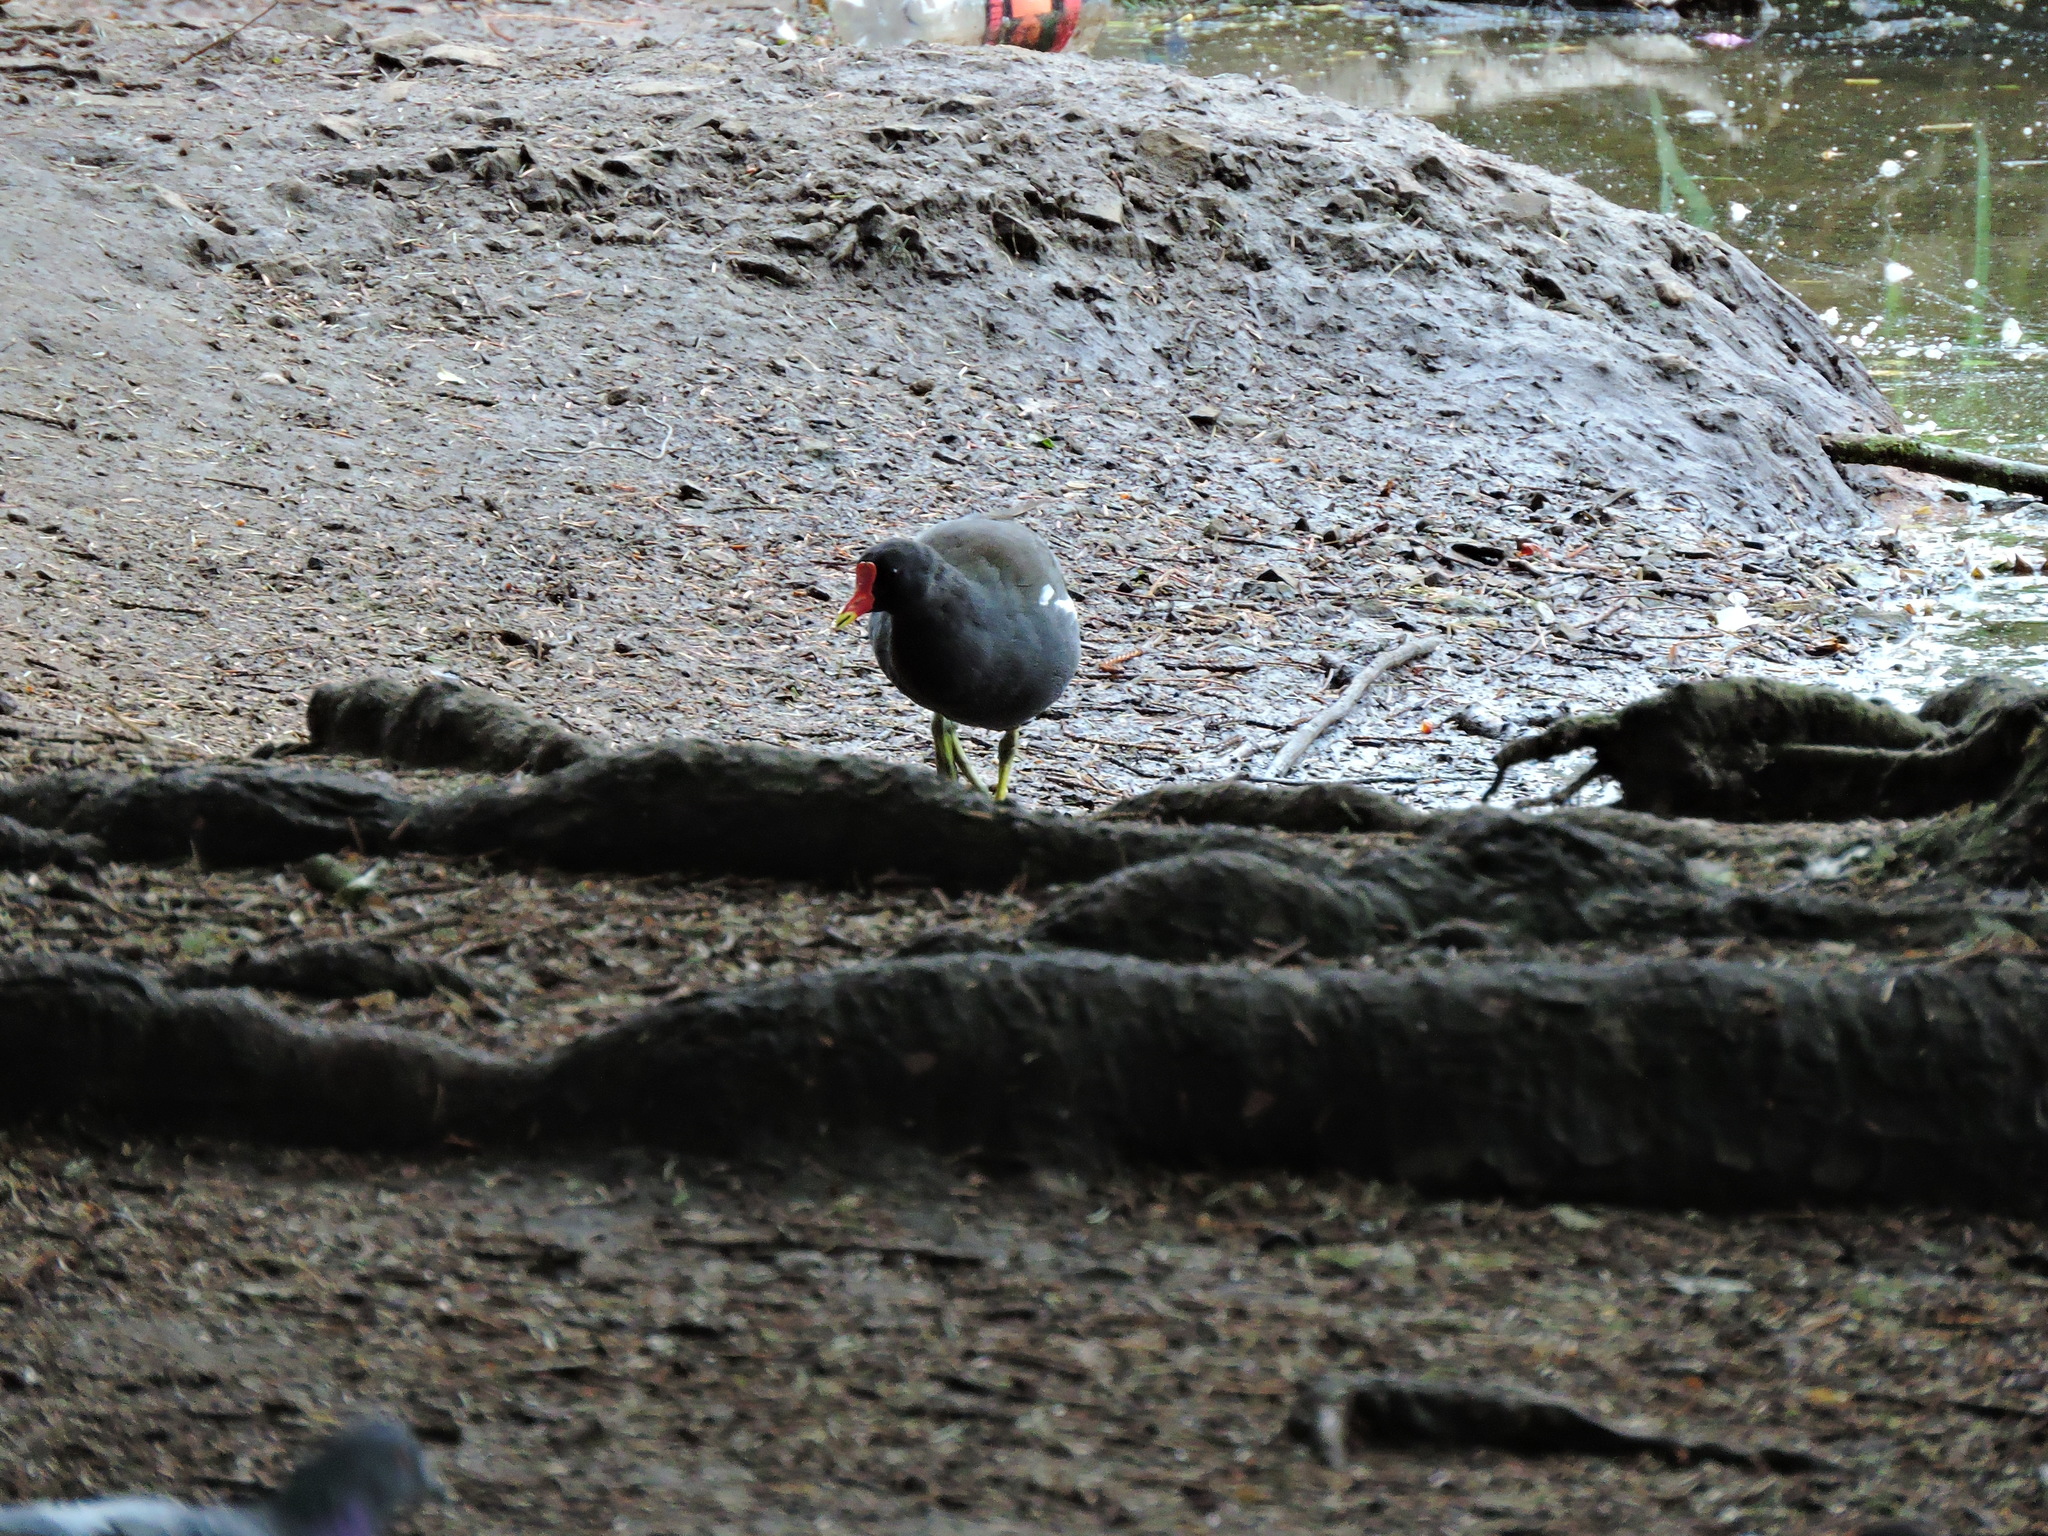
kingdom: Animalia
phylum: Chordata
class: Aves
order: Gruiformes
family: Rallidae
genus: Gallinula
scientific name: Gallinula chloropus
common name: Common moorhen
